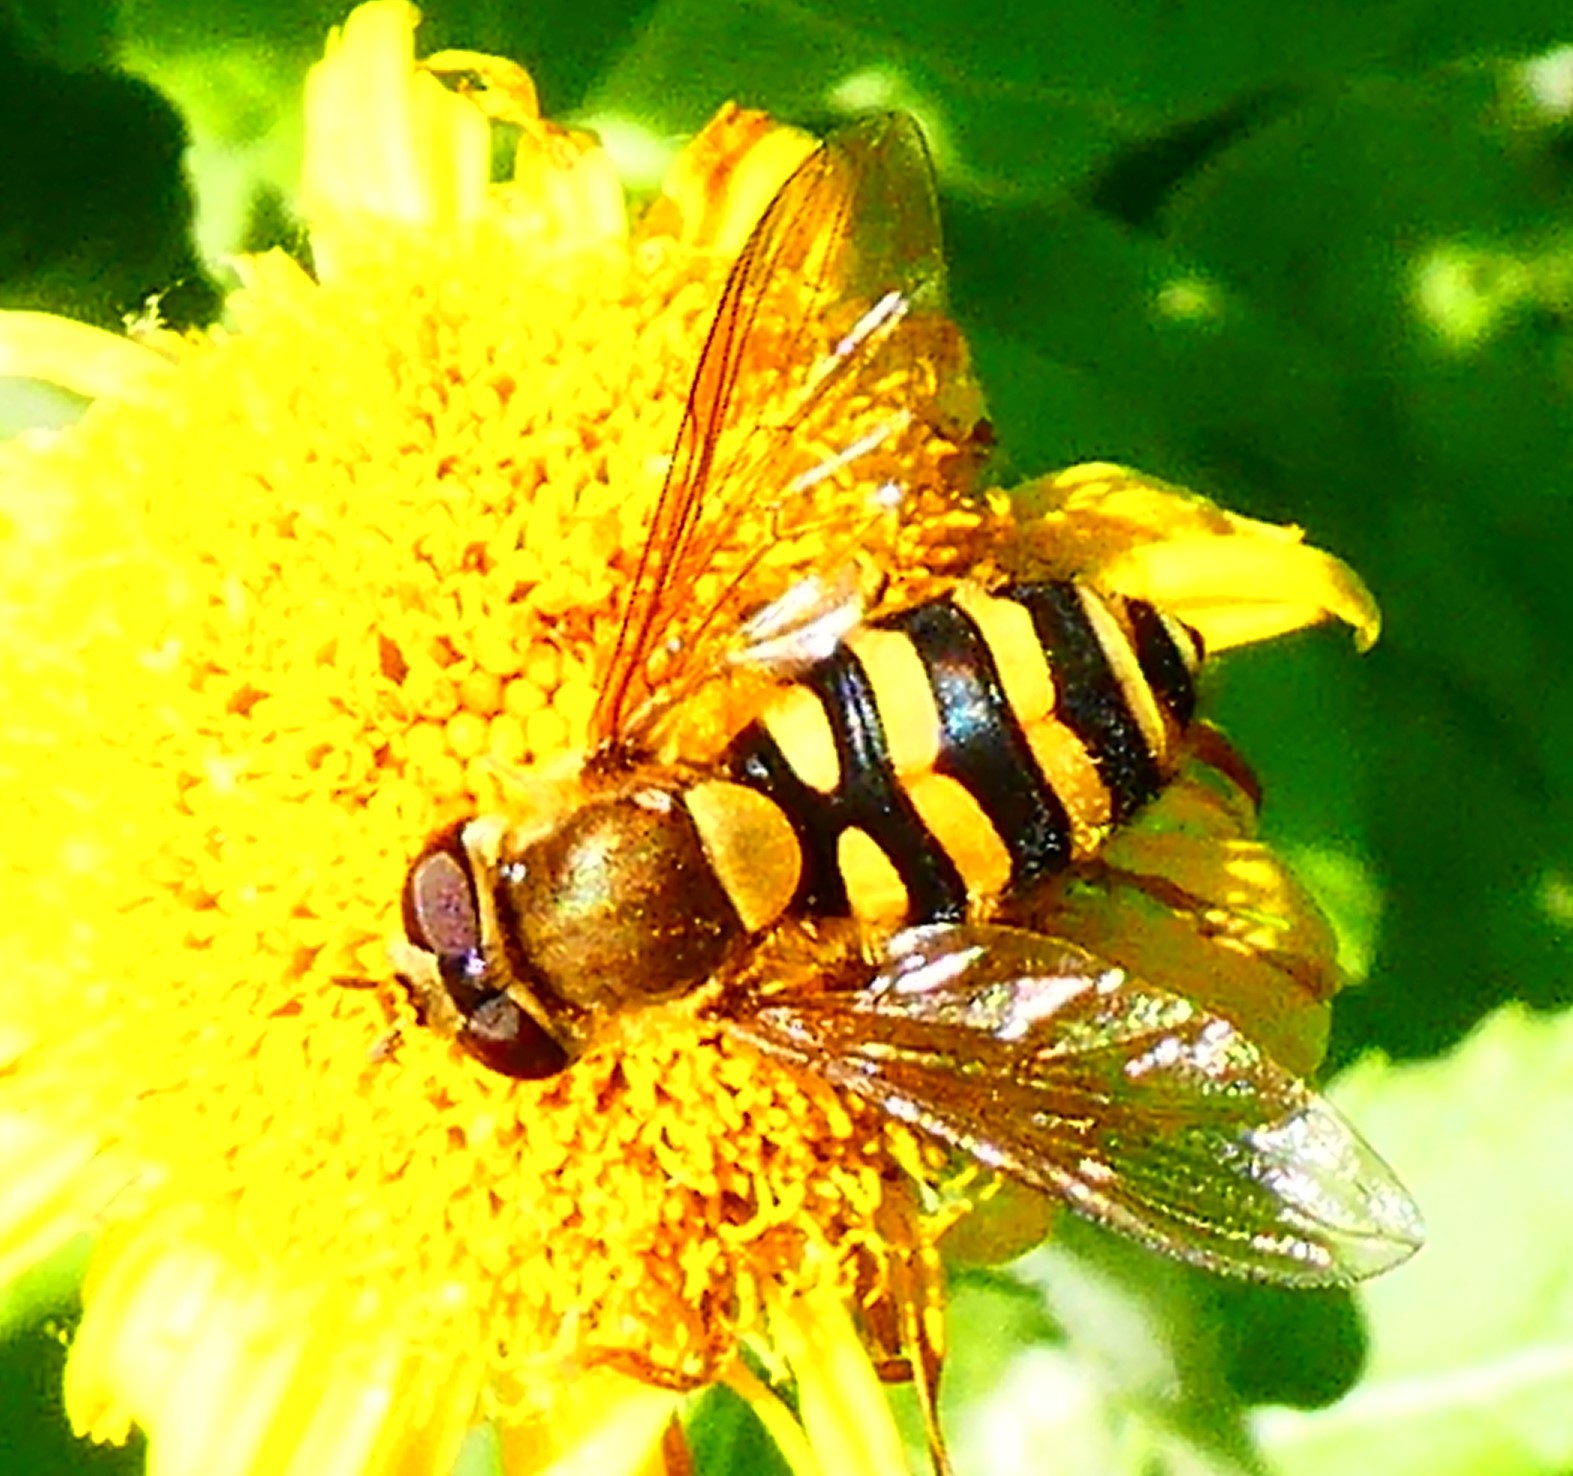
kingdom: Animalia
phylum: Arthropoda
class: Insecta
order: Diptera
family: Syrphidae
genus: Syrphus
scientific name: Syrphus
